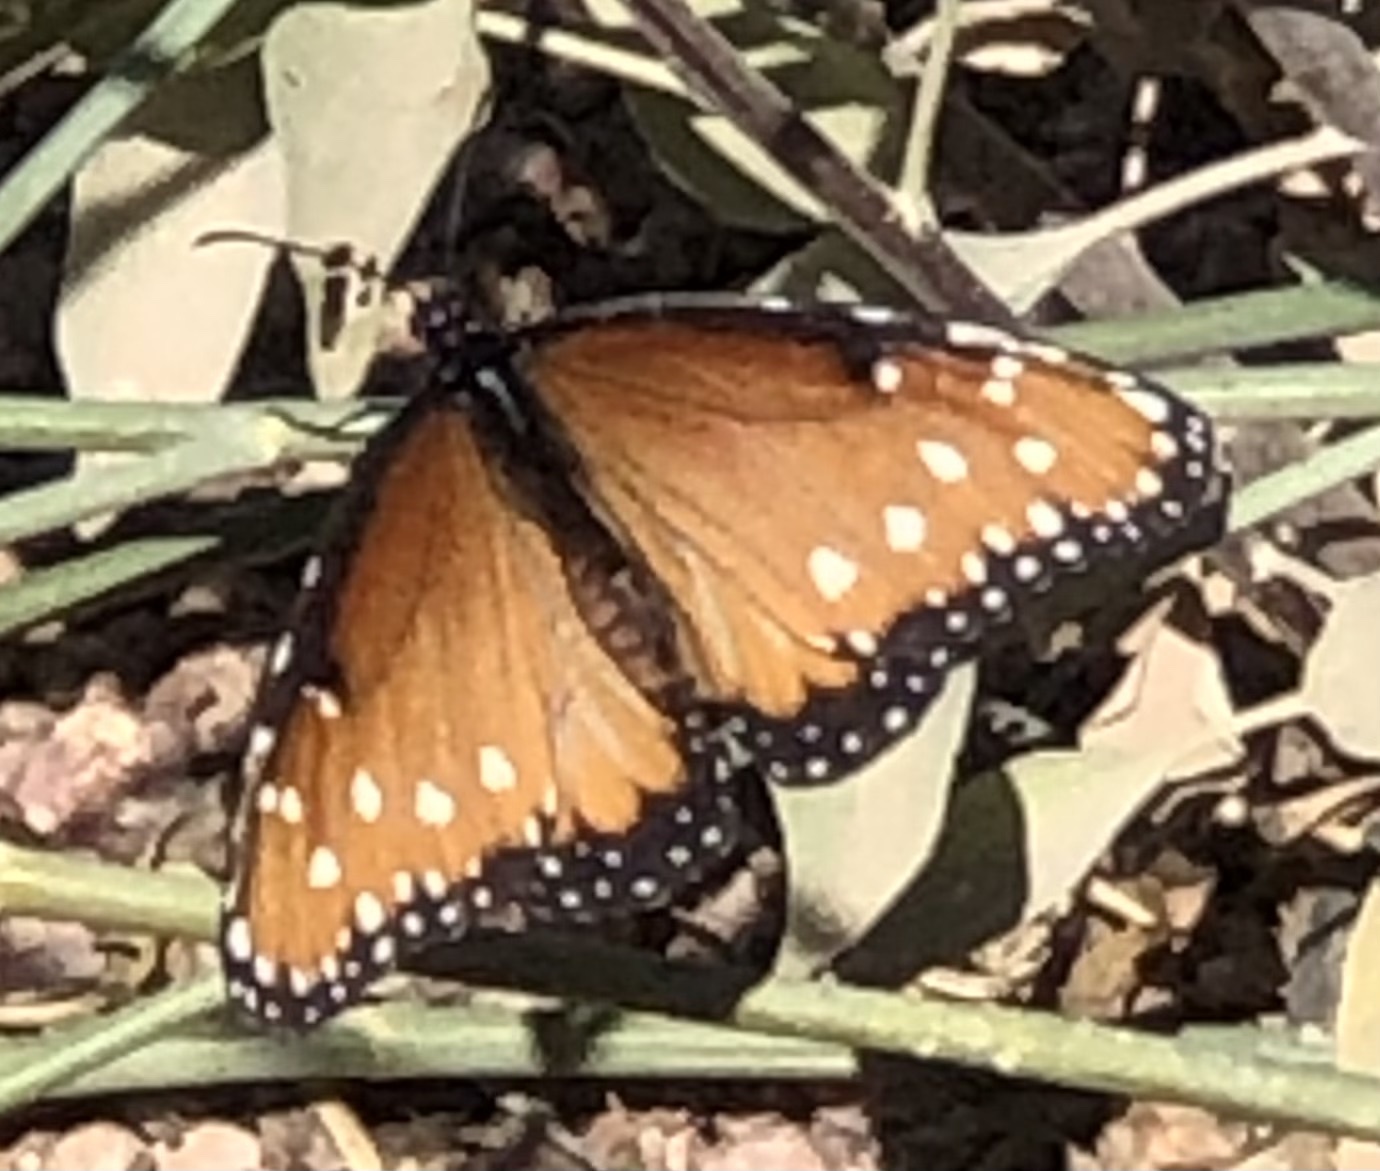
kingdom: Animalia
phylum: Arthropoda
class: Insecta
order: Lepidoptera
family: Nymphalidae
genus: Danaus
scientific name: Danaus gilippus
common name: Queen
